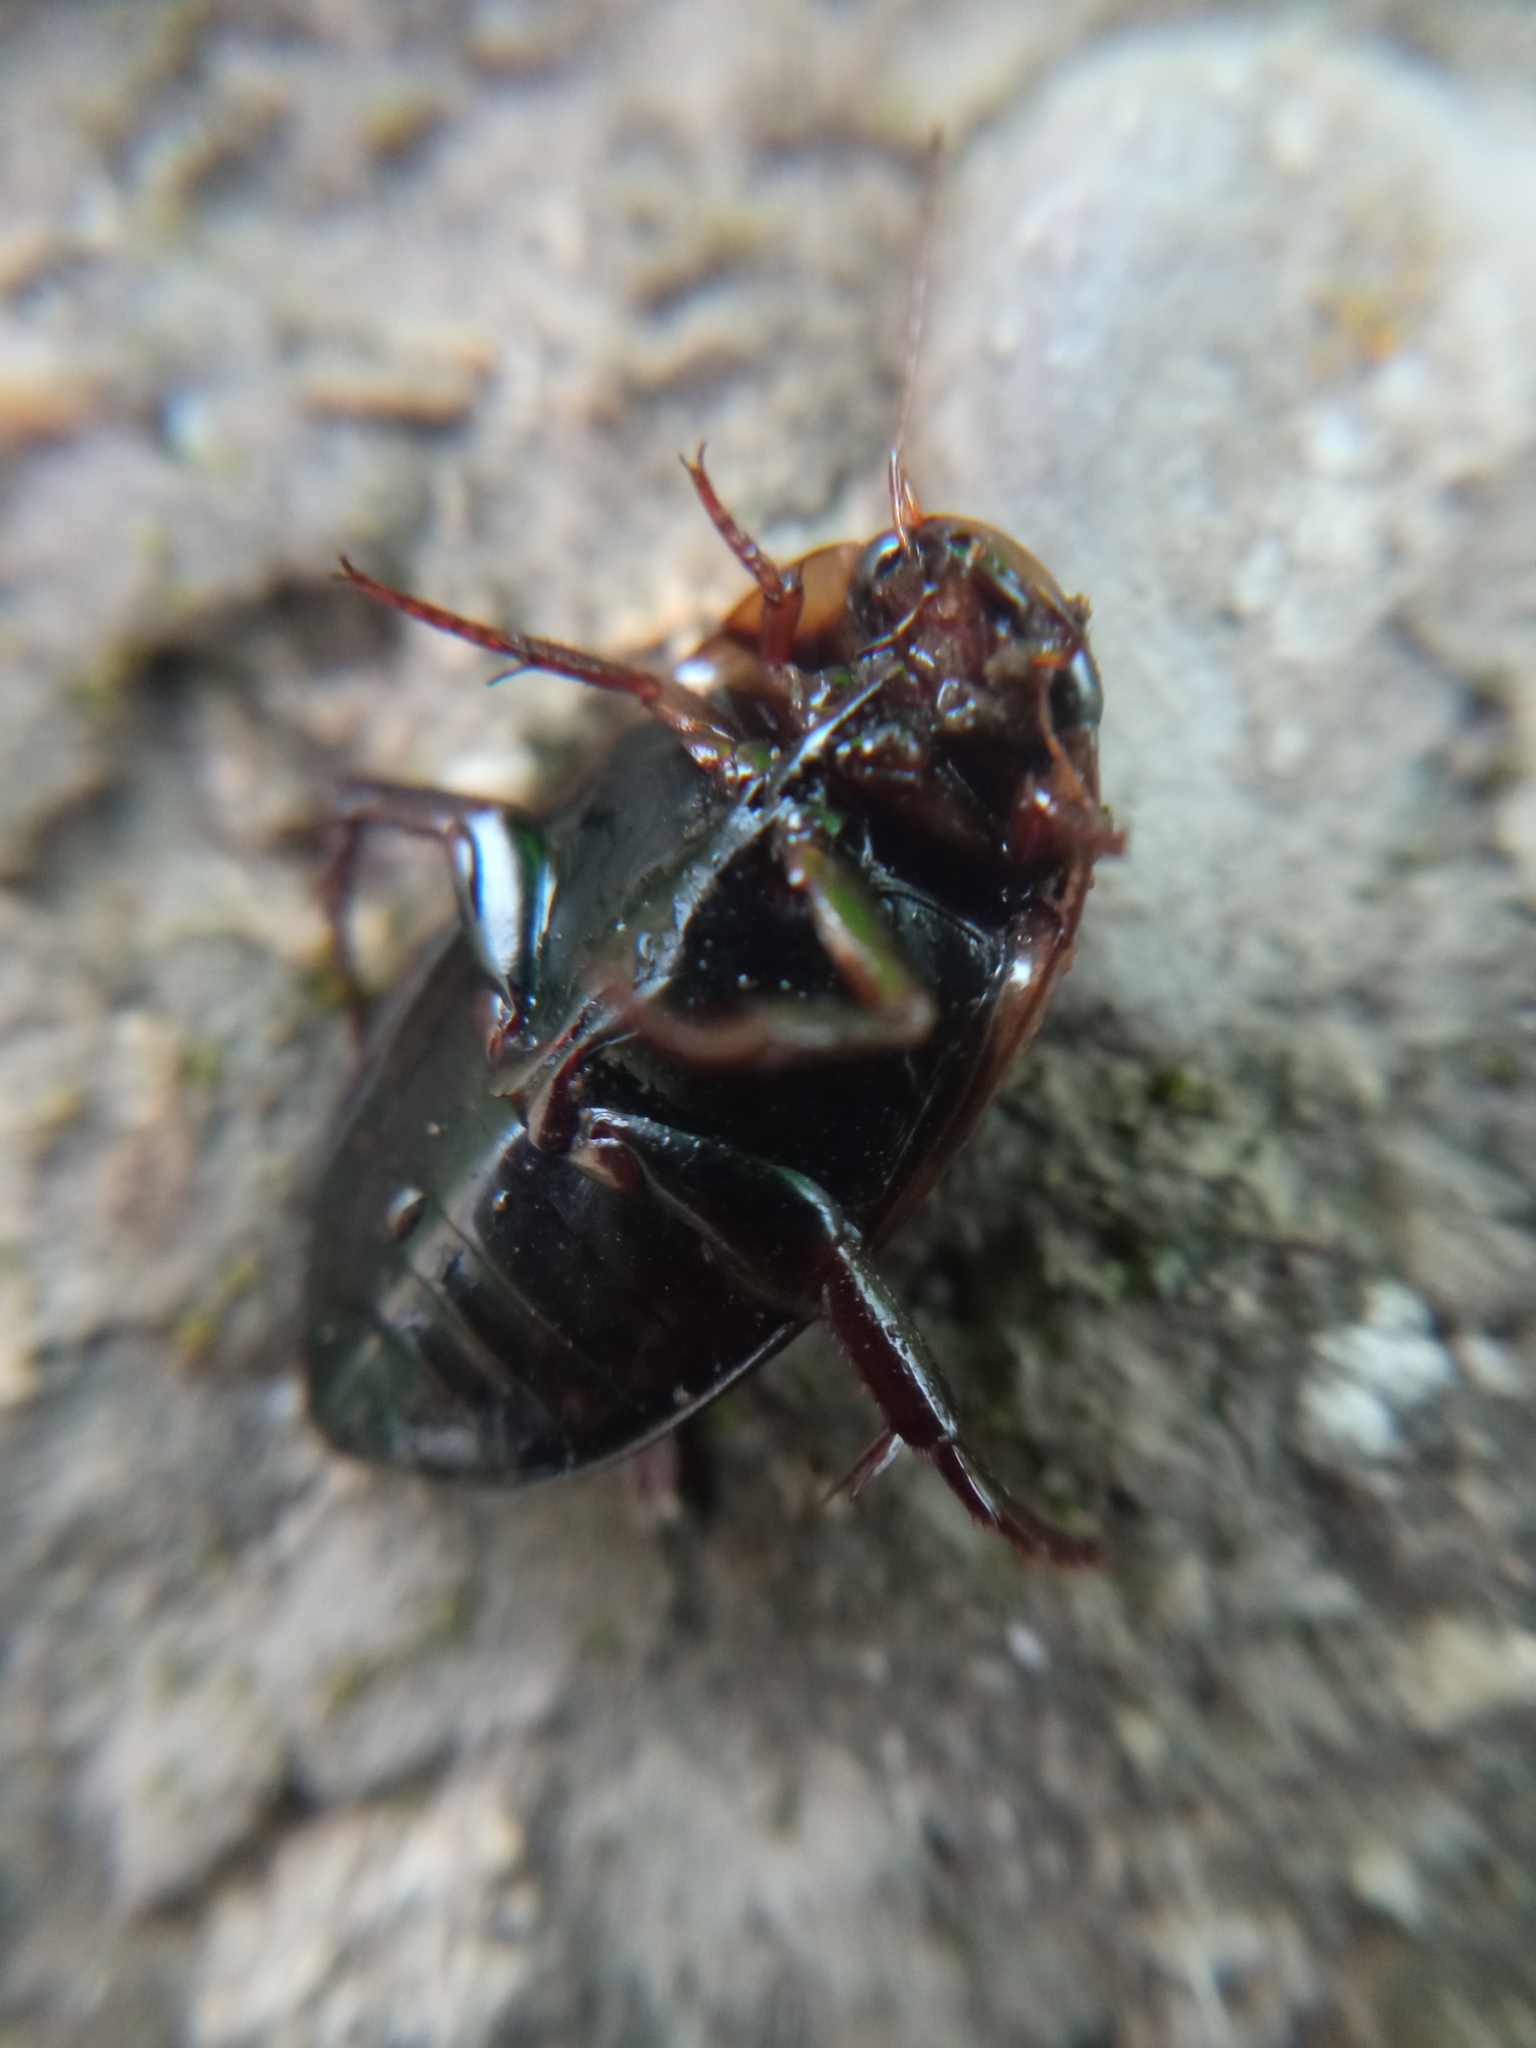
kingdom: Animalia
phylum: Arthropoda
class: Insecta
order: Coleoptera
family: Dytiscidae
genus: Hydaticus
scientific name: Hydaticus seminiger
